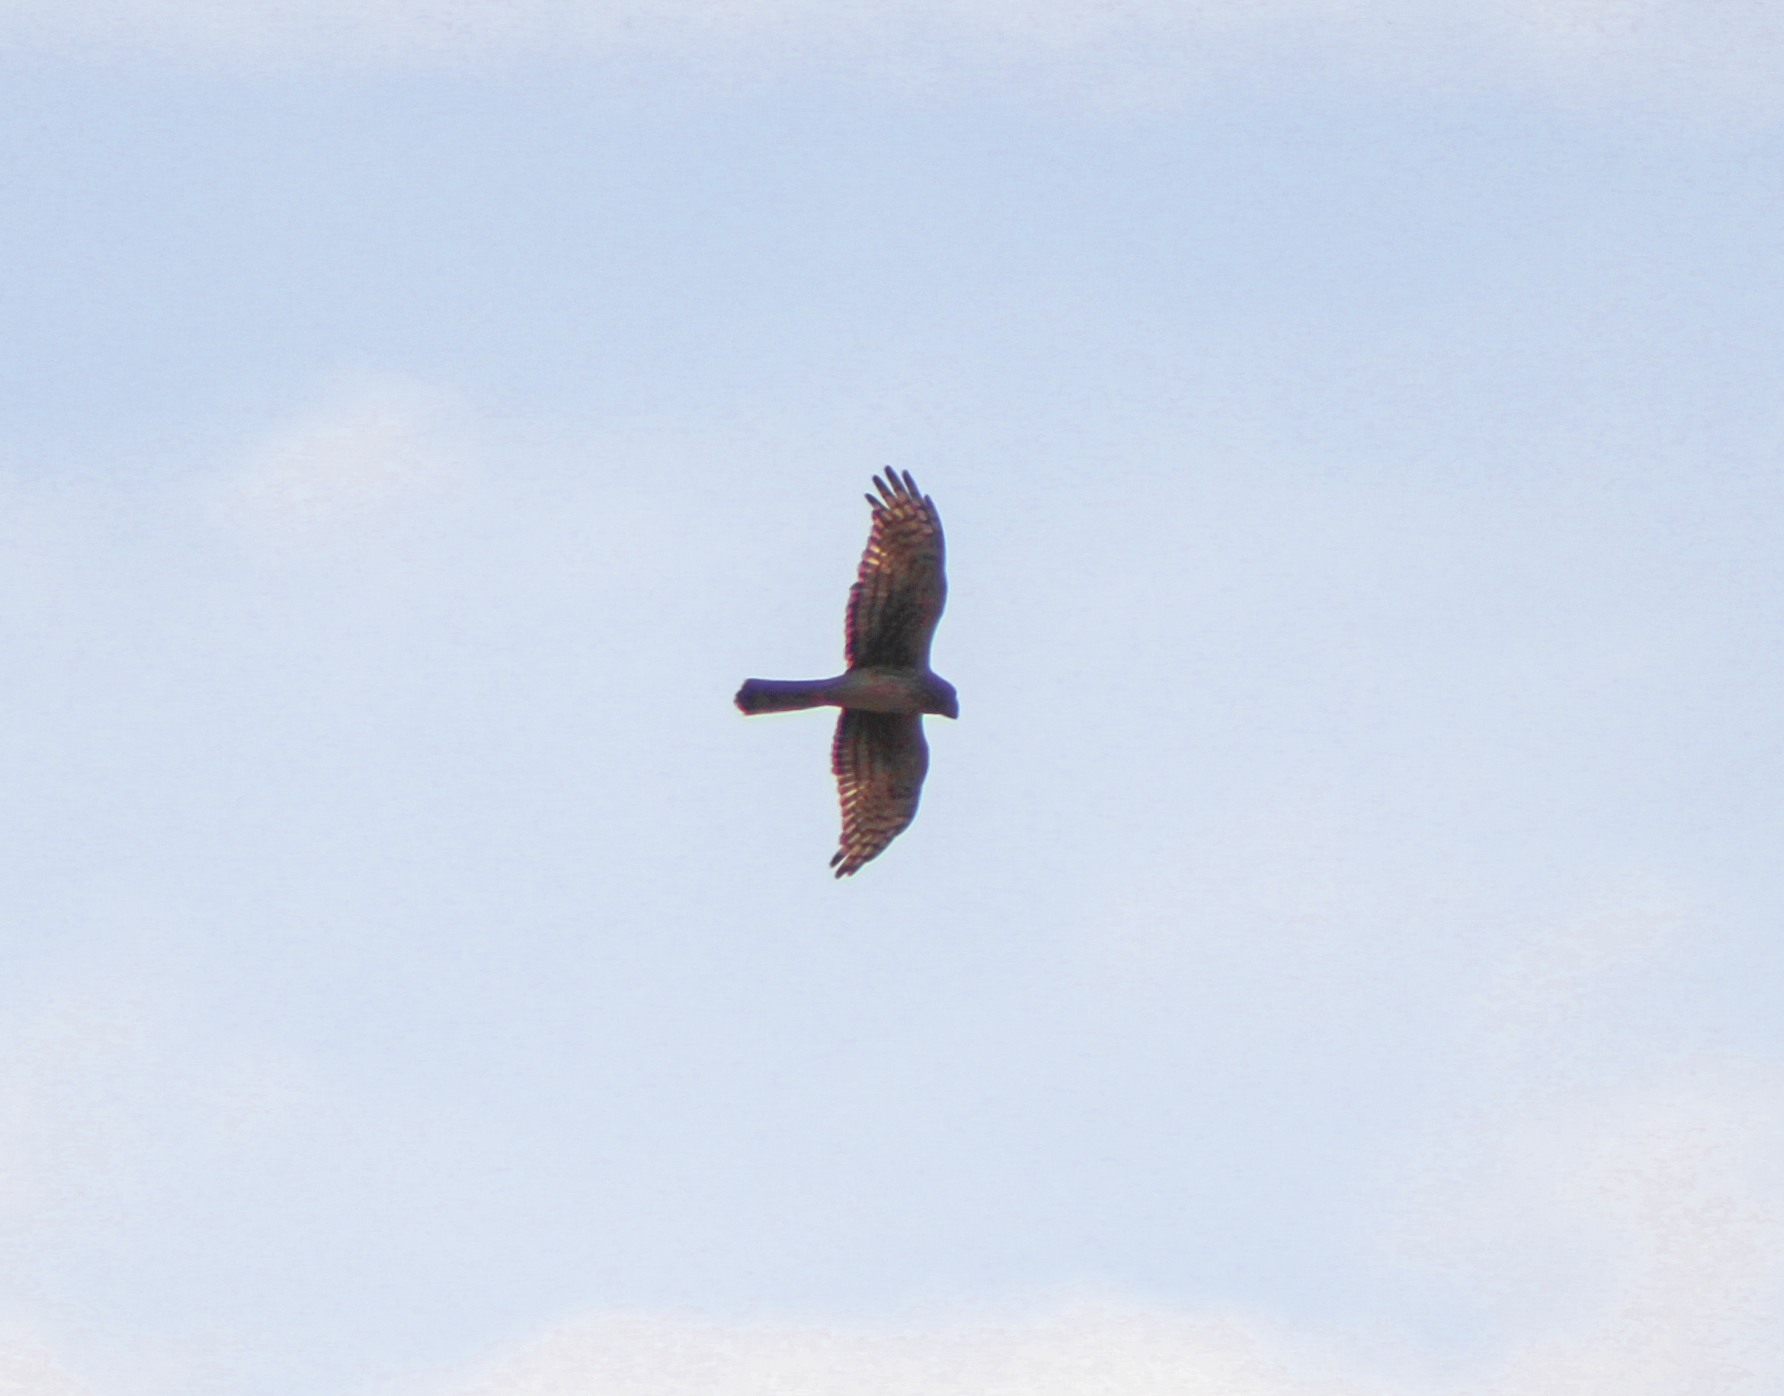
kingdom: Animalia
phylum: Chordata
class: Aves
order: Accipitriformes
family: Accipitridae
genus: Circus
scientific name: Circus cyaneus
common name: Hen harrier
